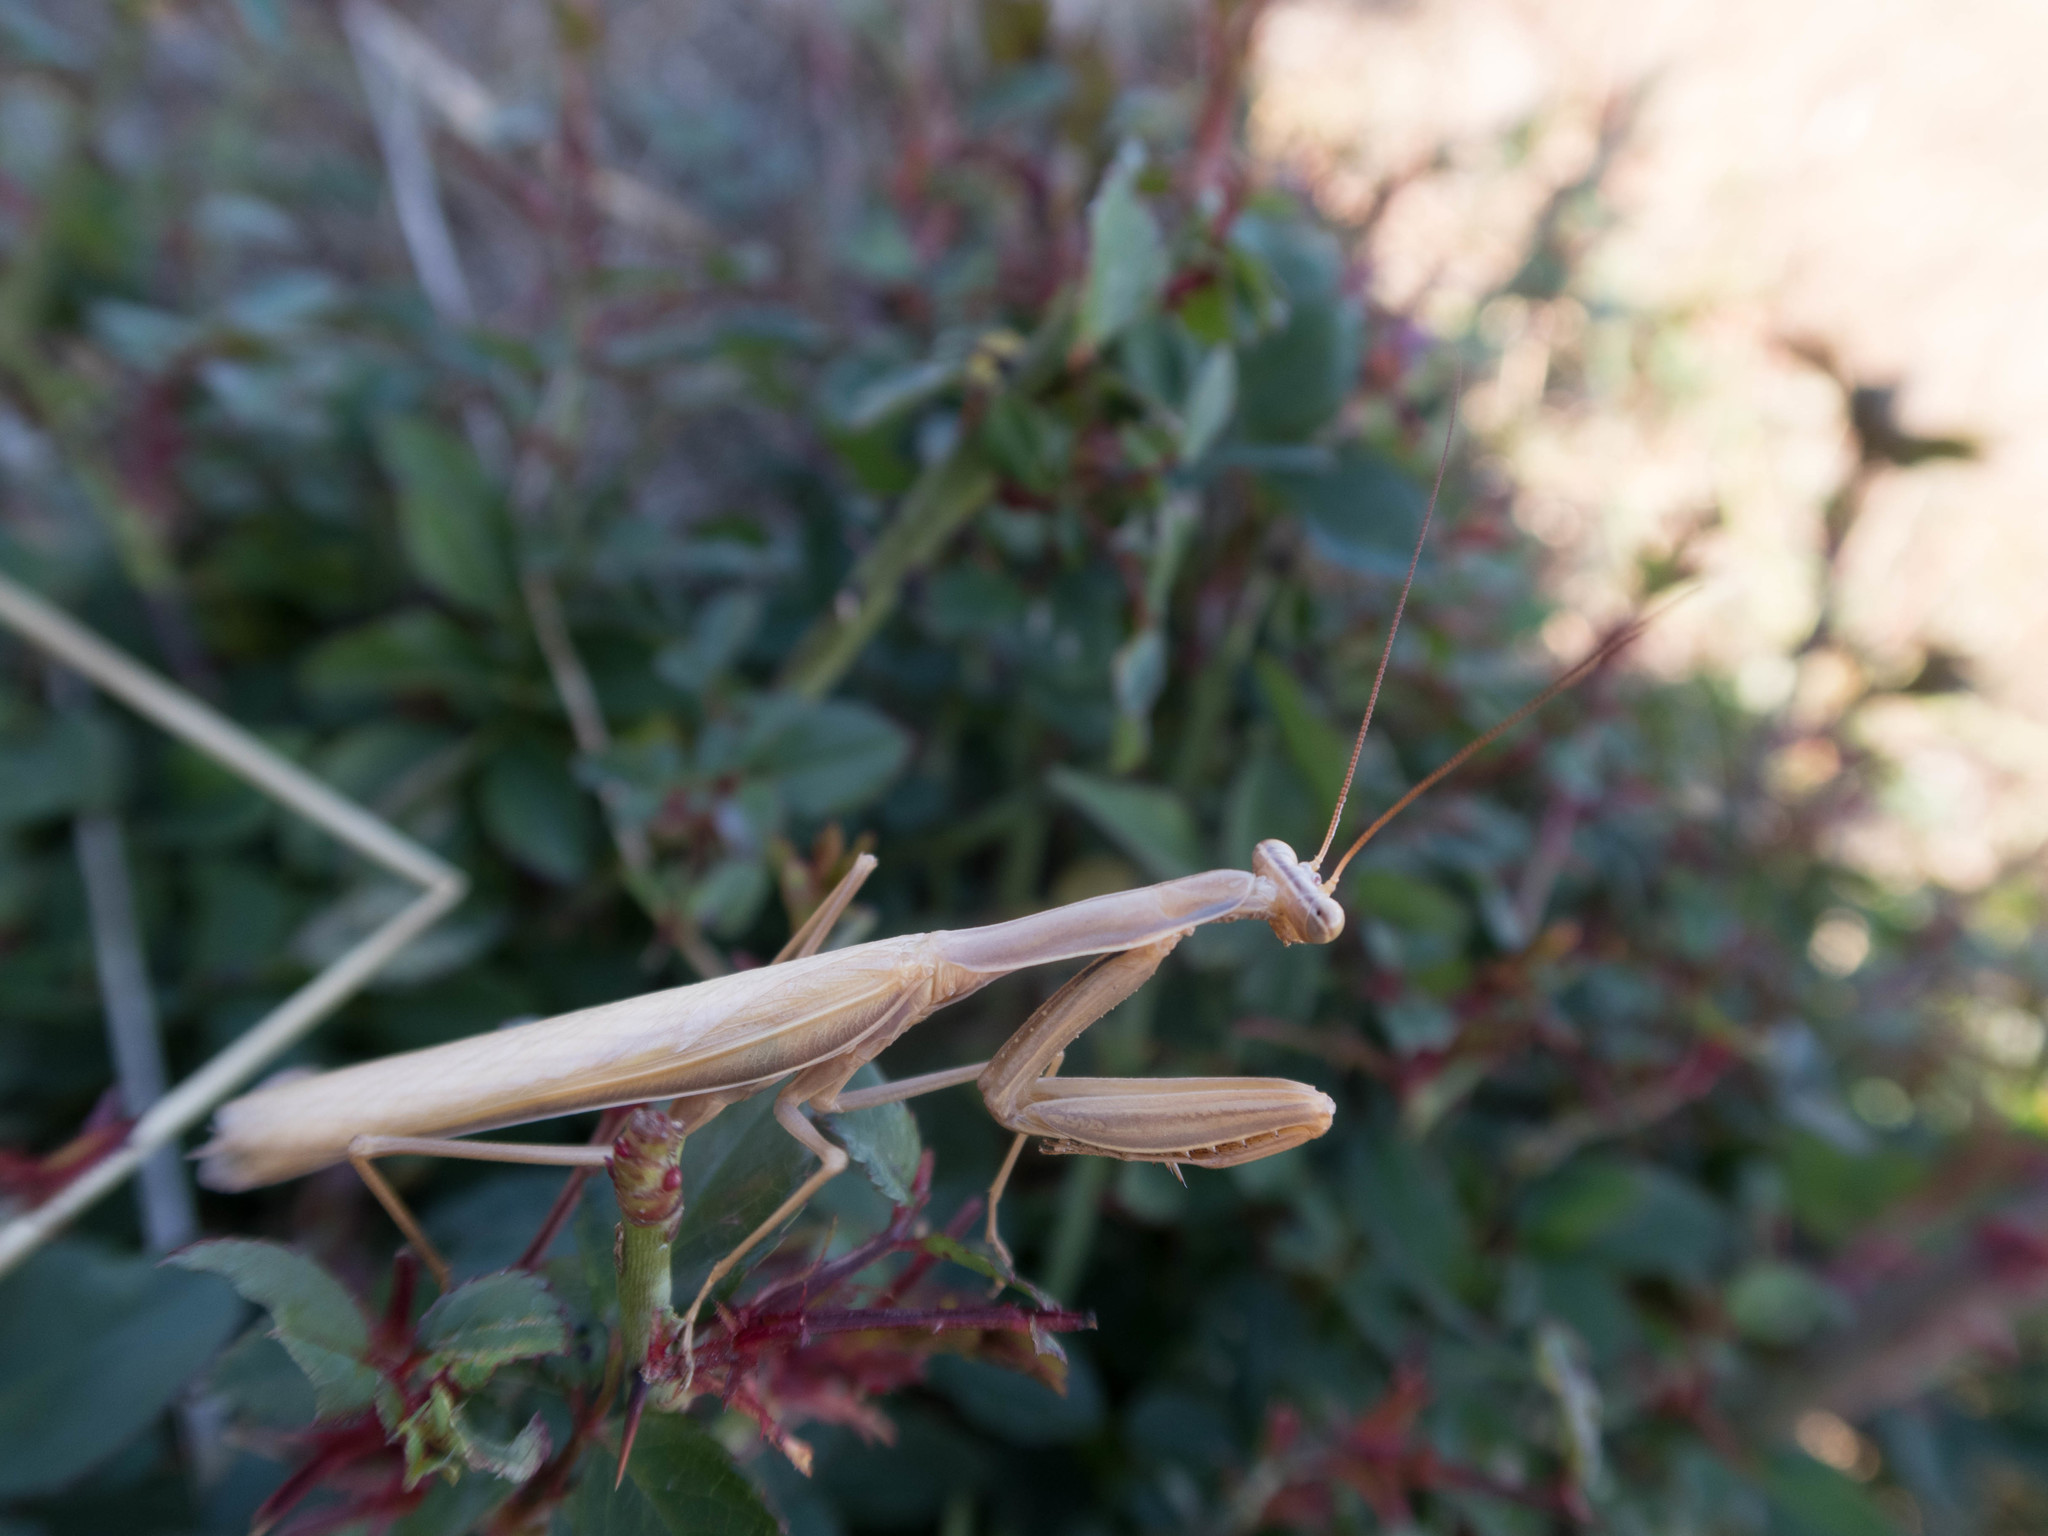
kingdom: Animalia
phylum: Arthropoda
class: Insecta
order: Mantodea
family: Mantidae
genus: Mantis
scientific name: Mantis religiosa
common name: Praying mantis
